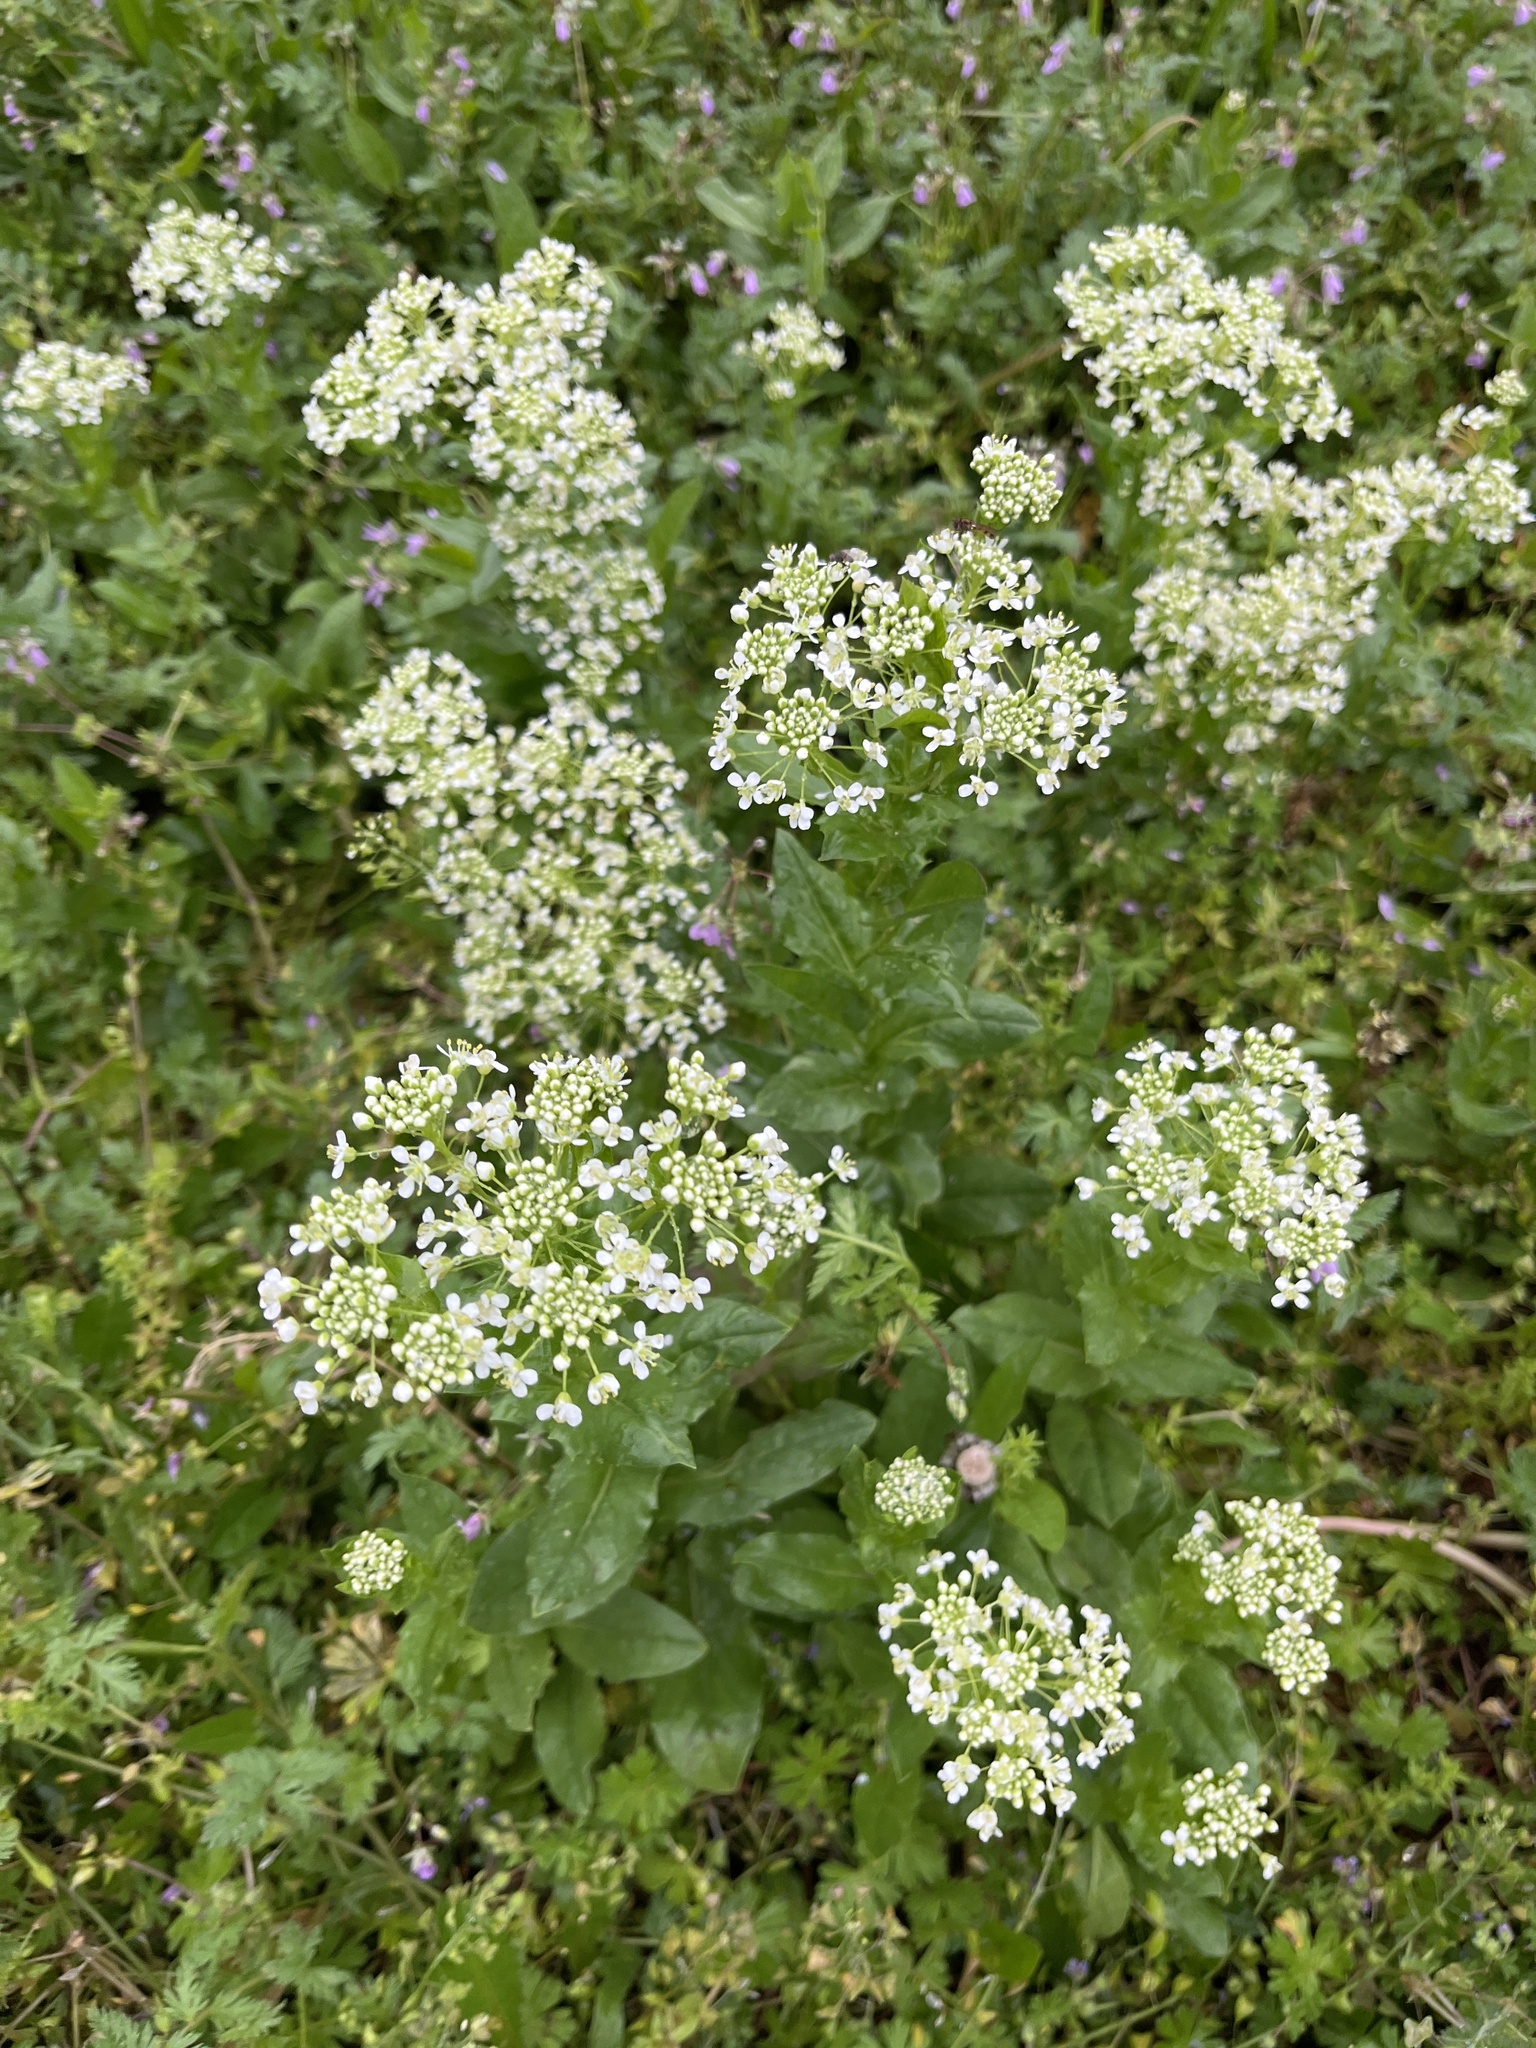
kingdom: Plantae
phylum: Tracheophyta
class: Magnoliopsida
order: Brassicales
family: Brassicaceae
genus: Lepidium
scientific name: Lepidium draba
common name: Hoary cress
